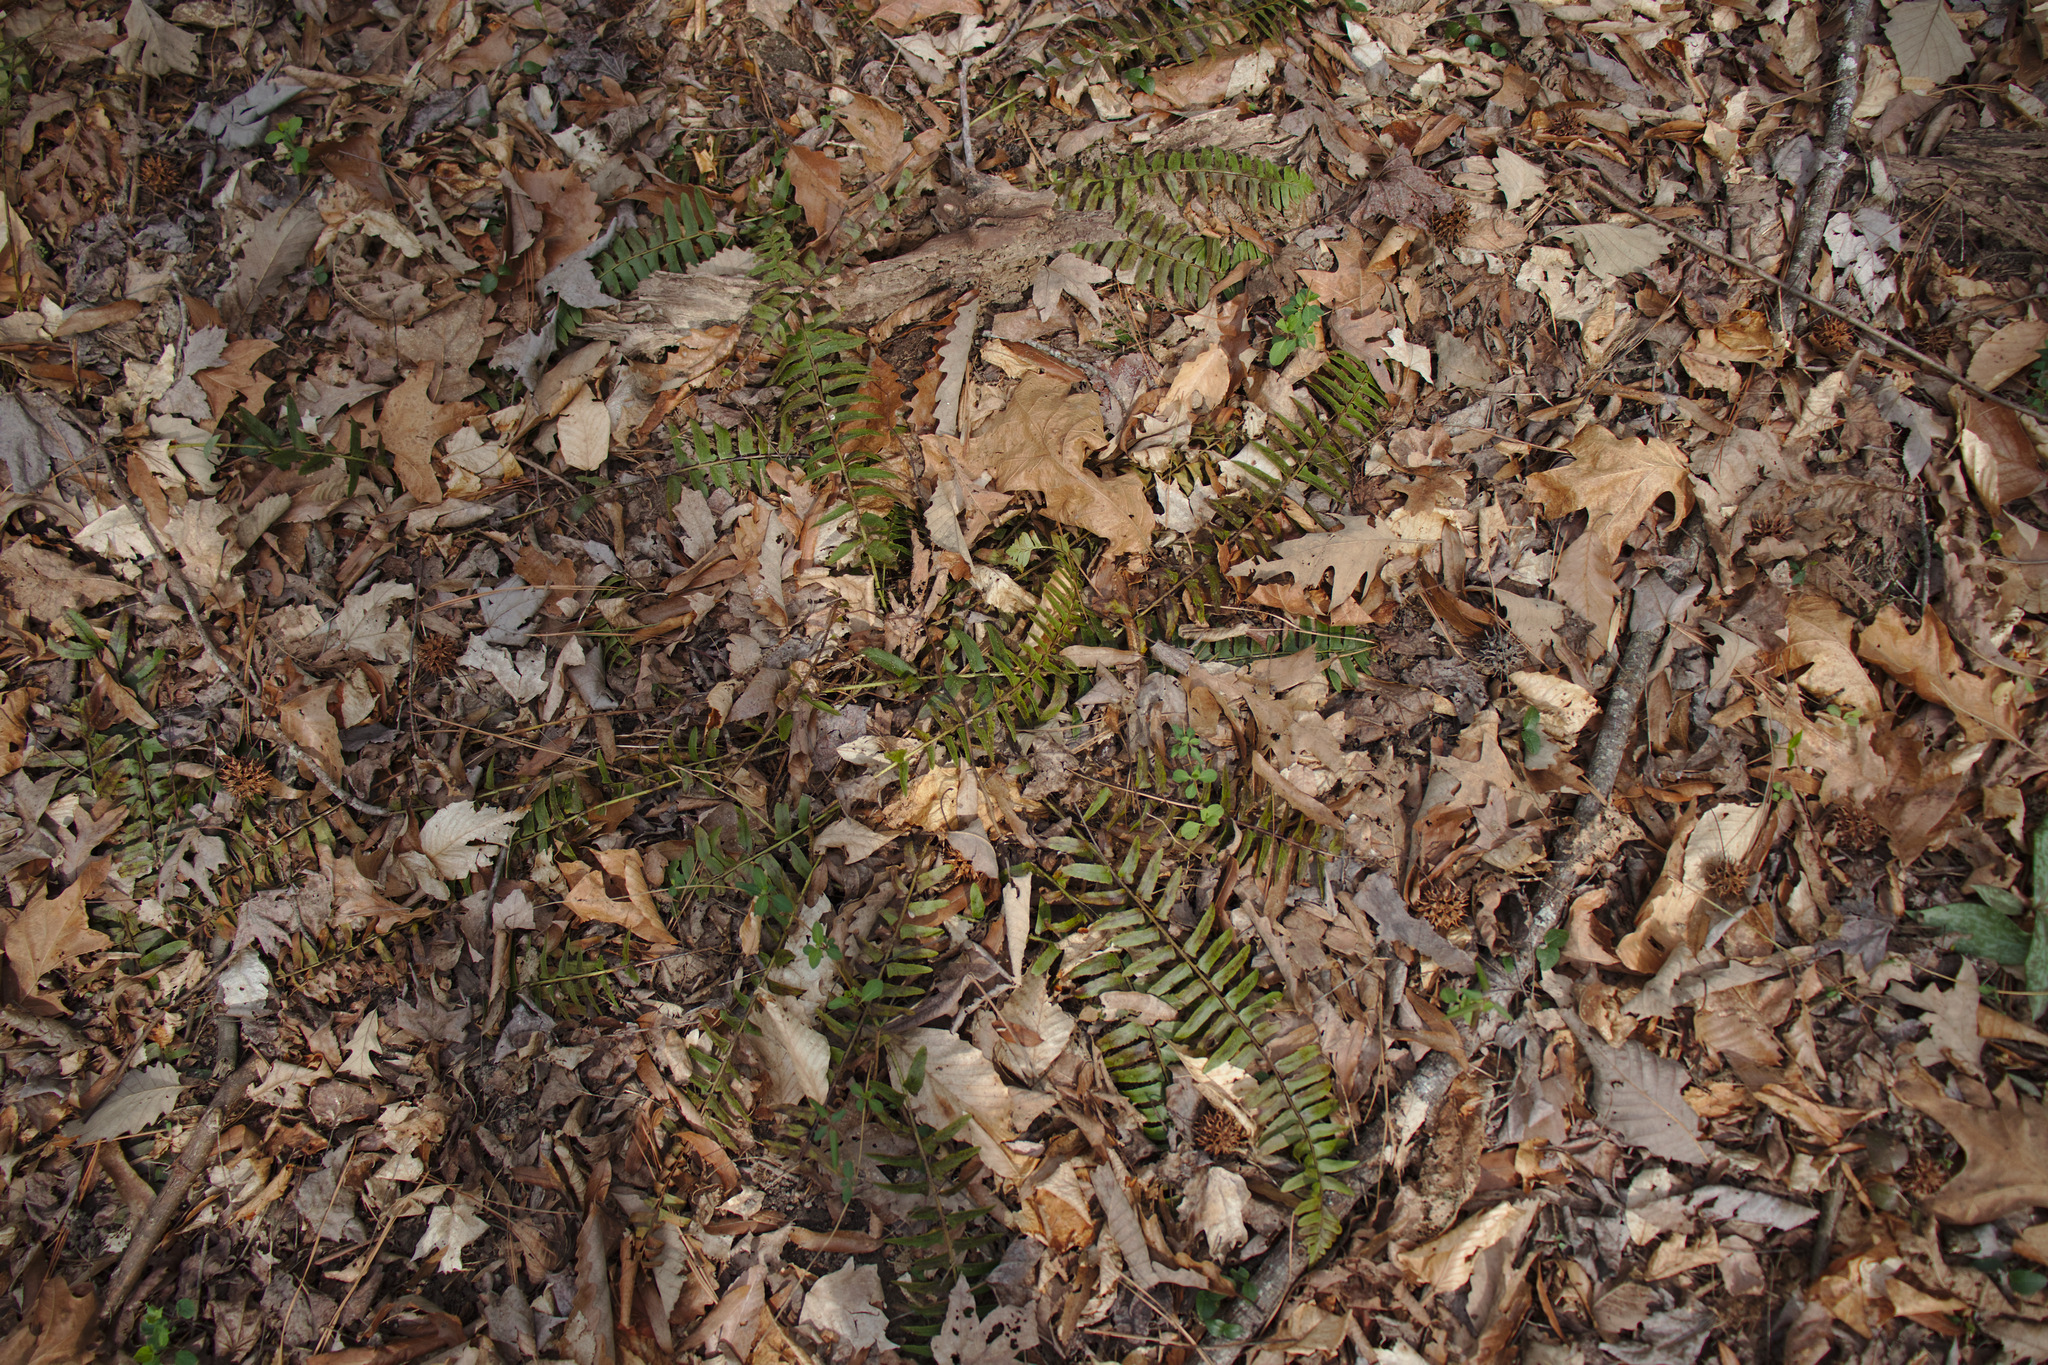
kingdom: Plantae
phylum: Tracheophyta
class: Polypodiopsida
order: Polypodiales
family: Dryopteridaceae
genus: Polystichum
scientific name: Polystichum acrostichoides
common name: Christmas fern
